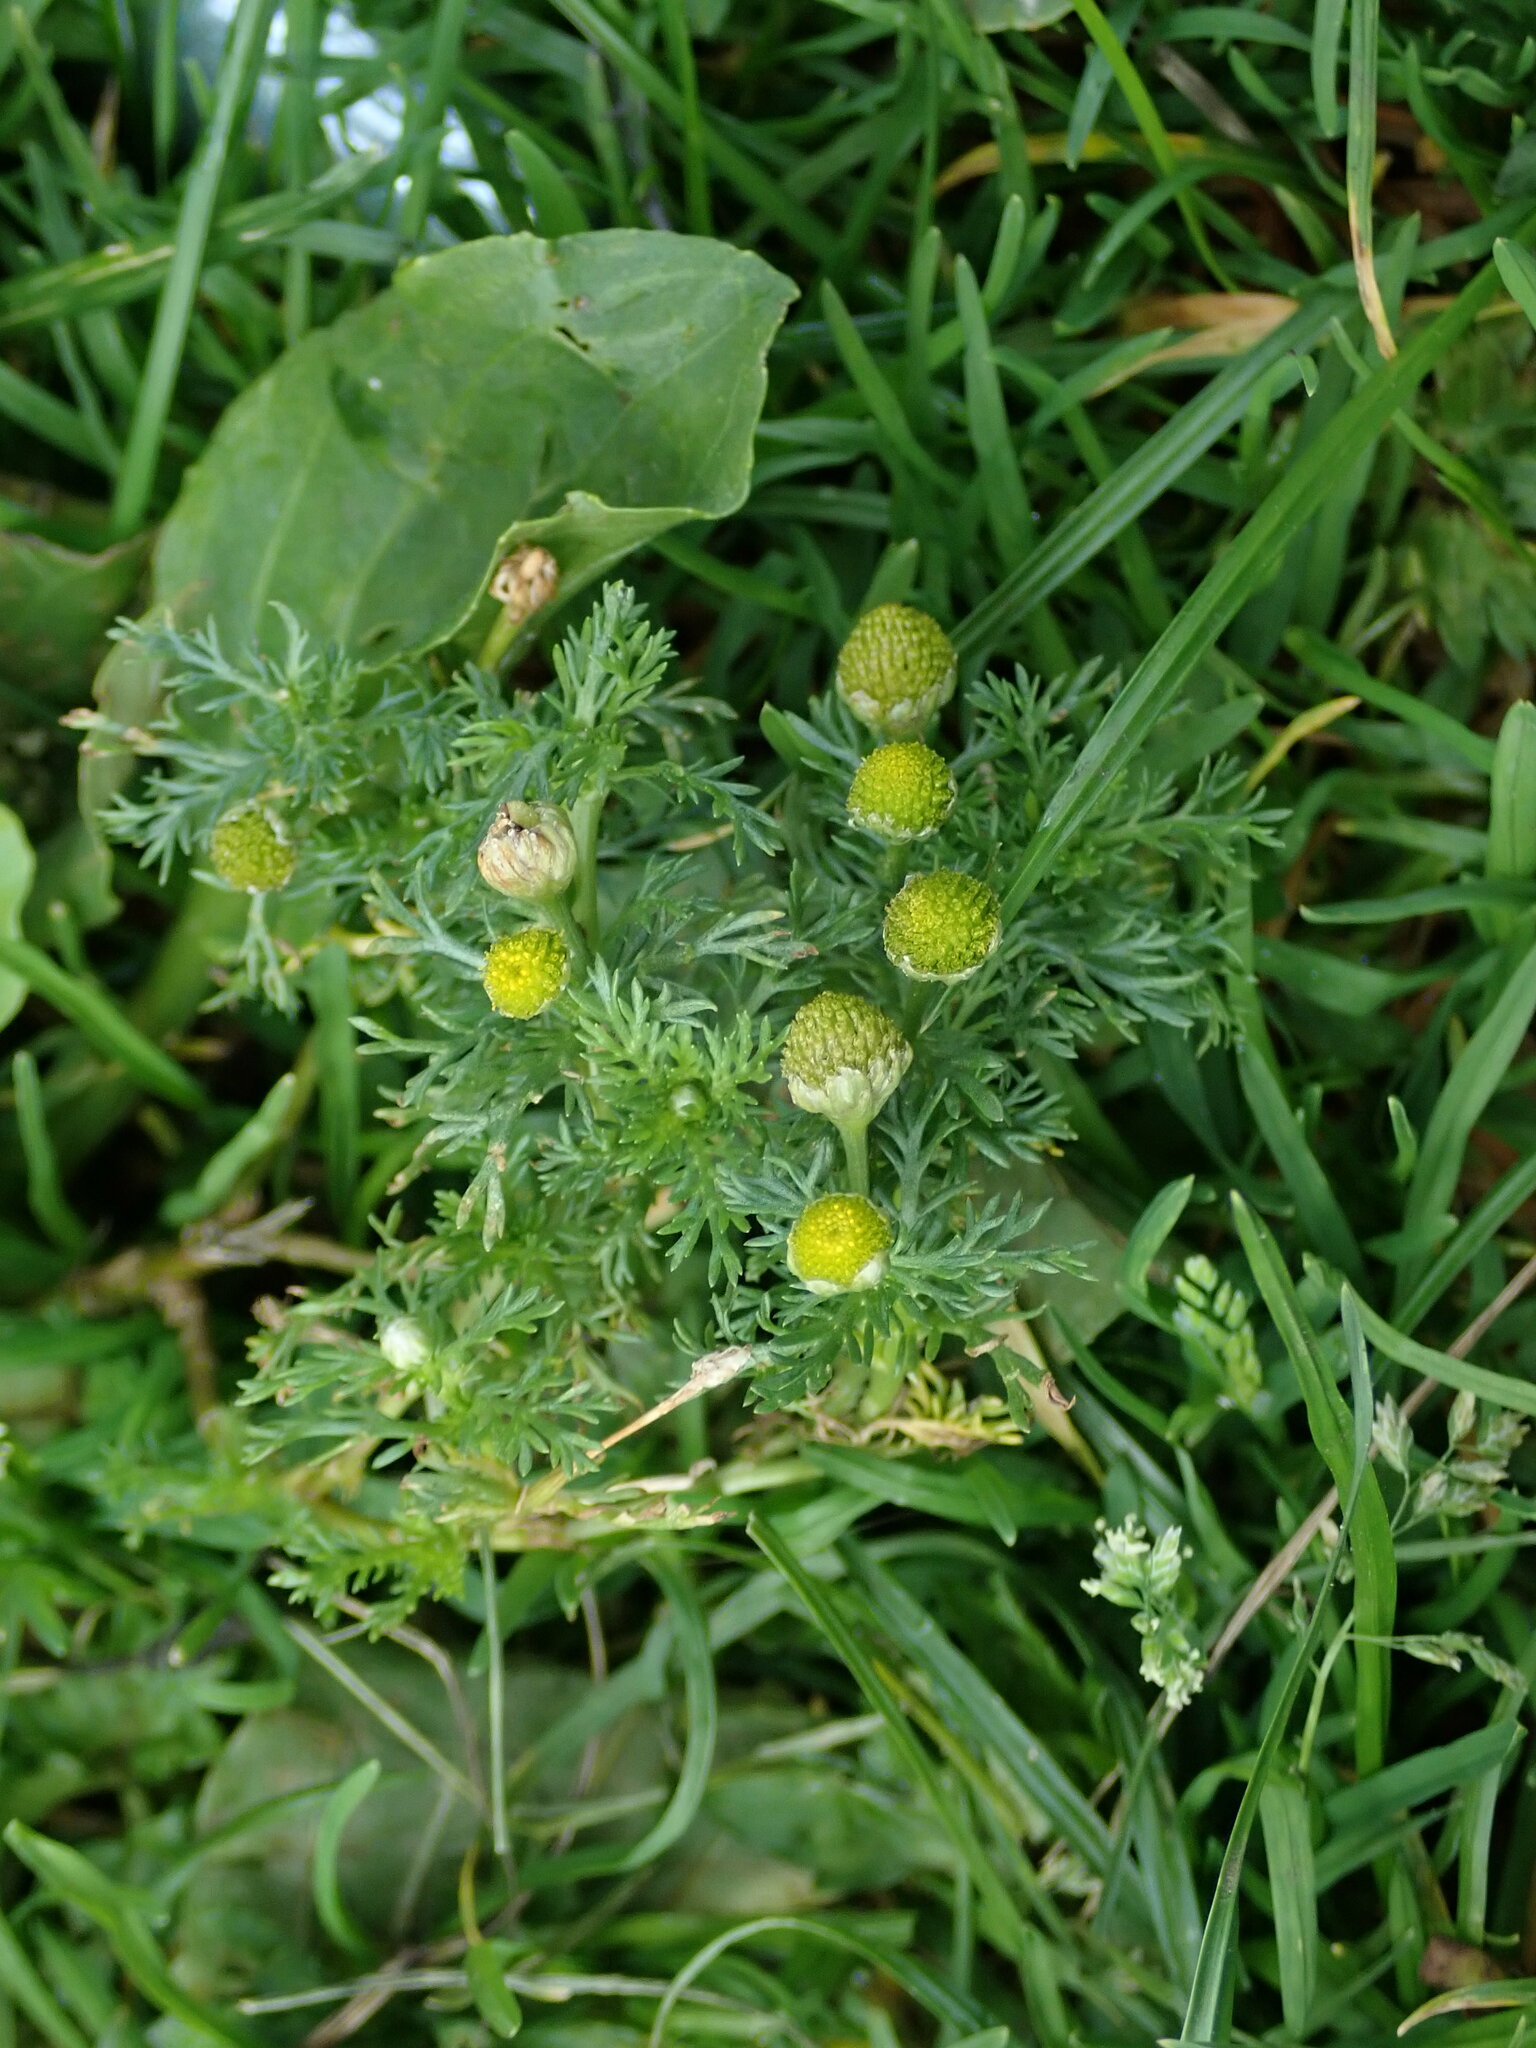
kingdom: Plantae
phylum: Tracheophyta
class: Magnoliopsida
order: Asterales
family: Asteraceae
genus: Matricaria
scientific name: Matricaria discoidea
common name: Disc mayweed
